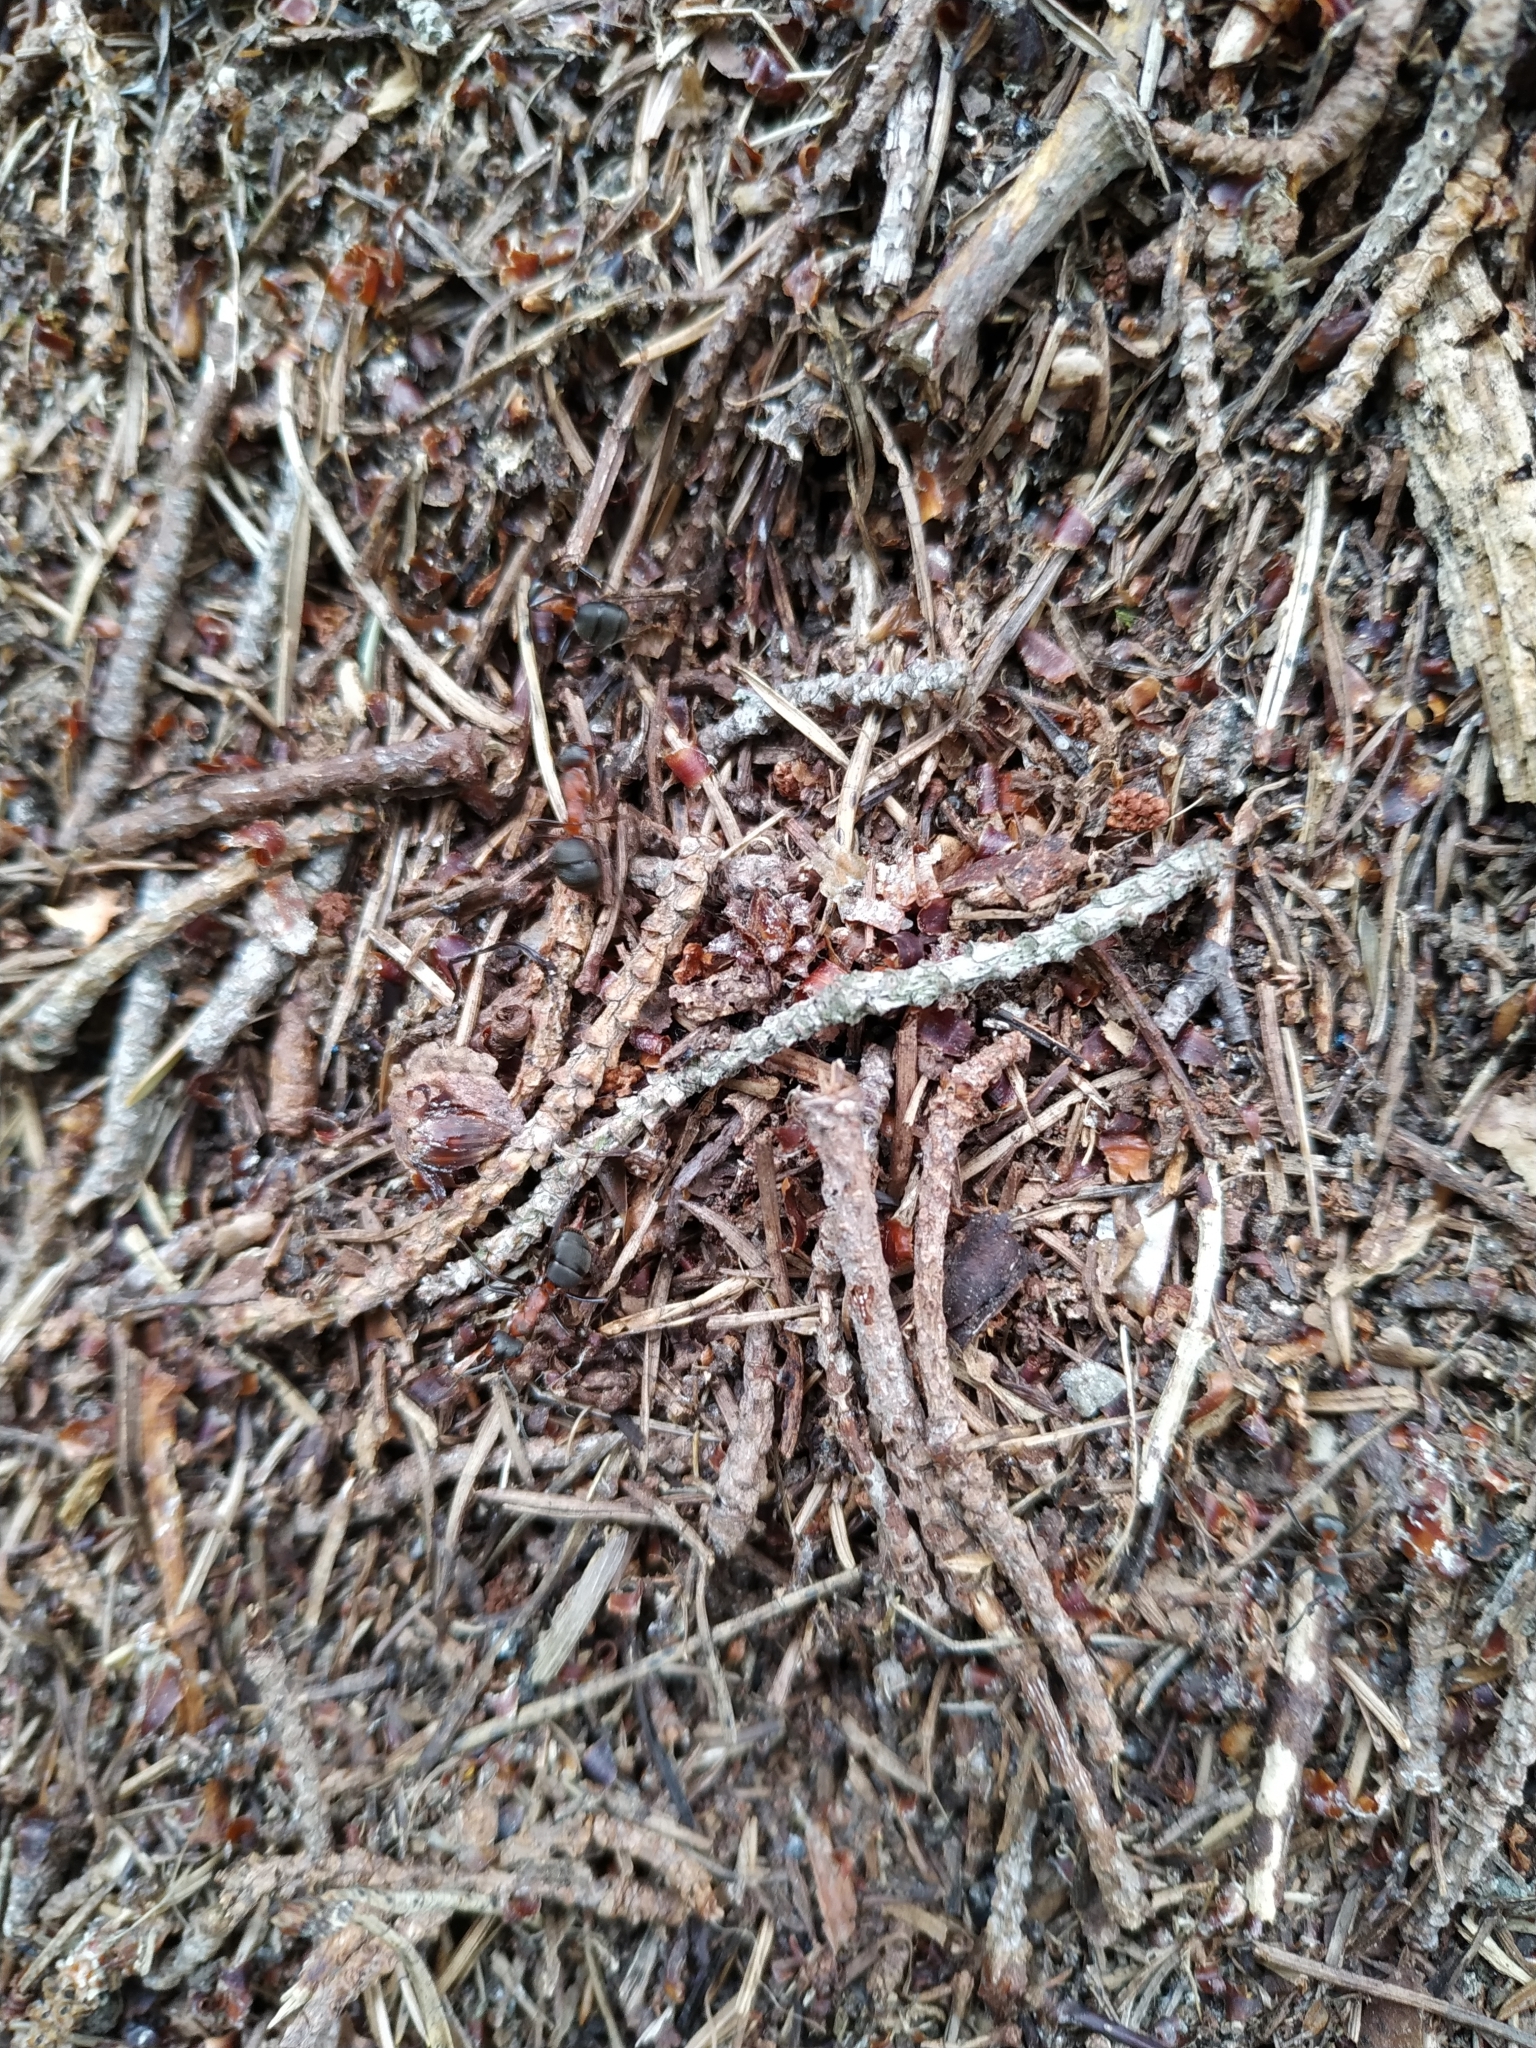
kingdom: Animalia
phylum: Arthropoda
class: Insecta
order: Hymenoptera
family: Formicidae
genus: Formica
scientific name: Formica rufa
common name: Red wood ant
